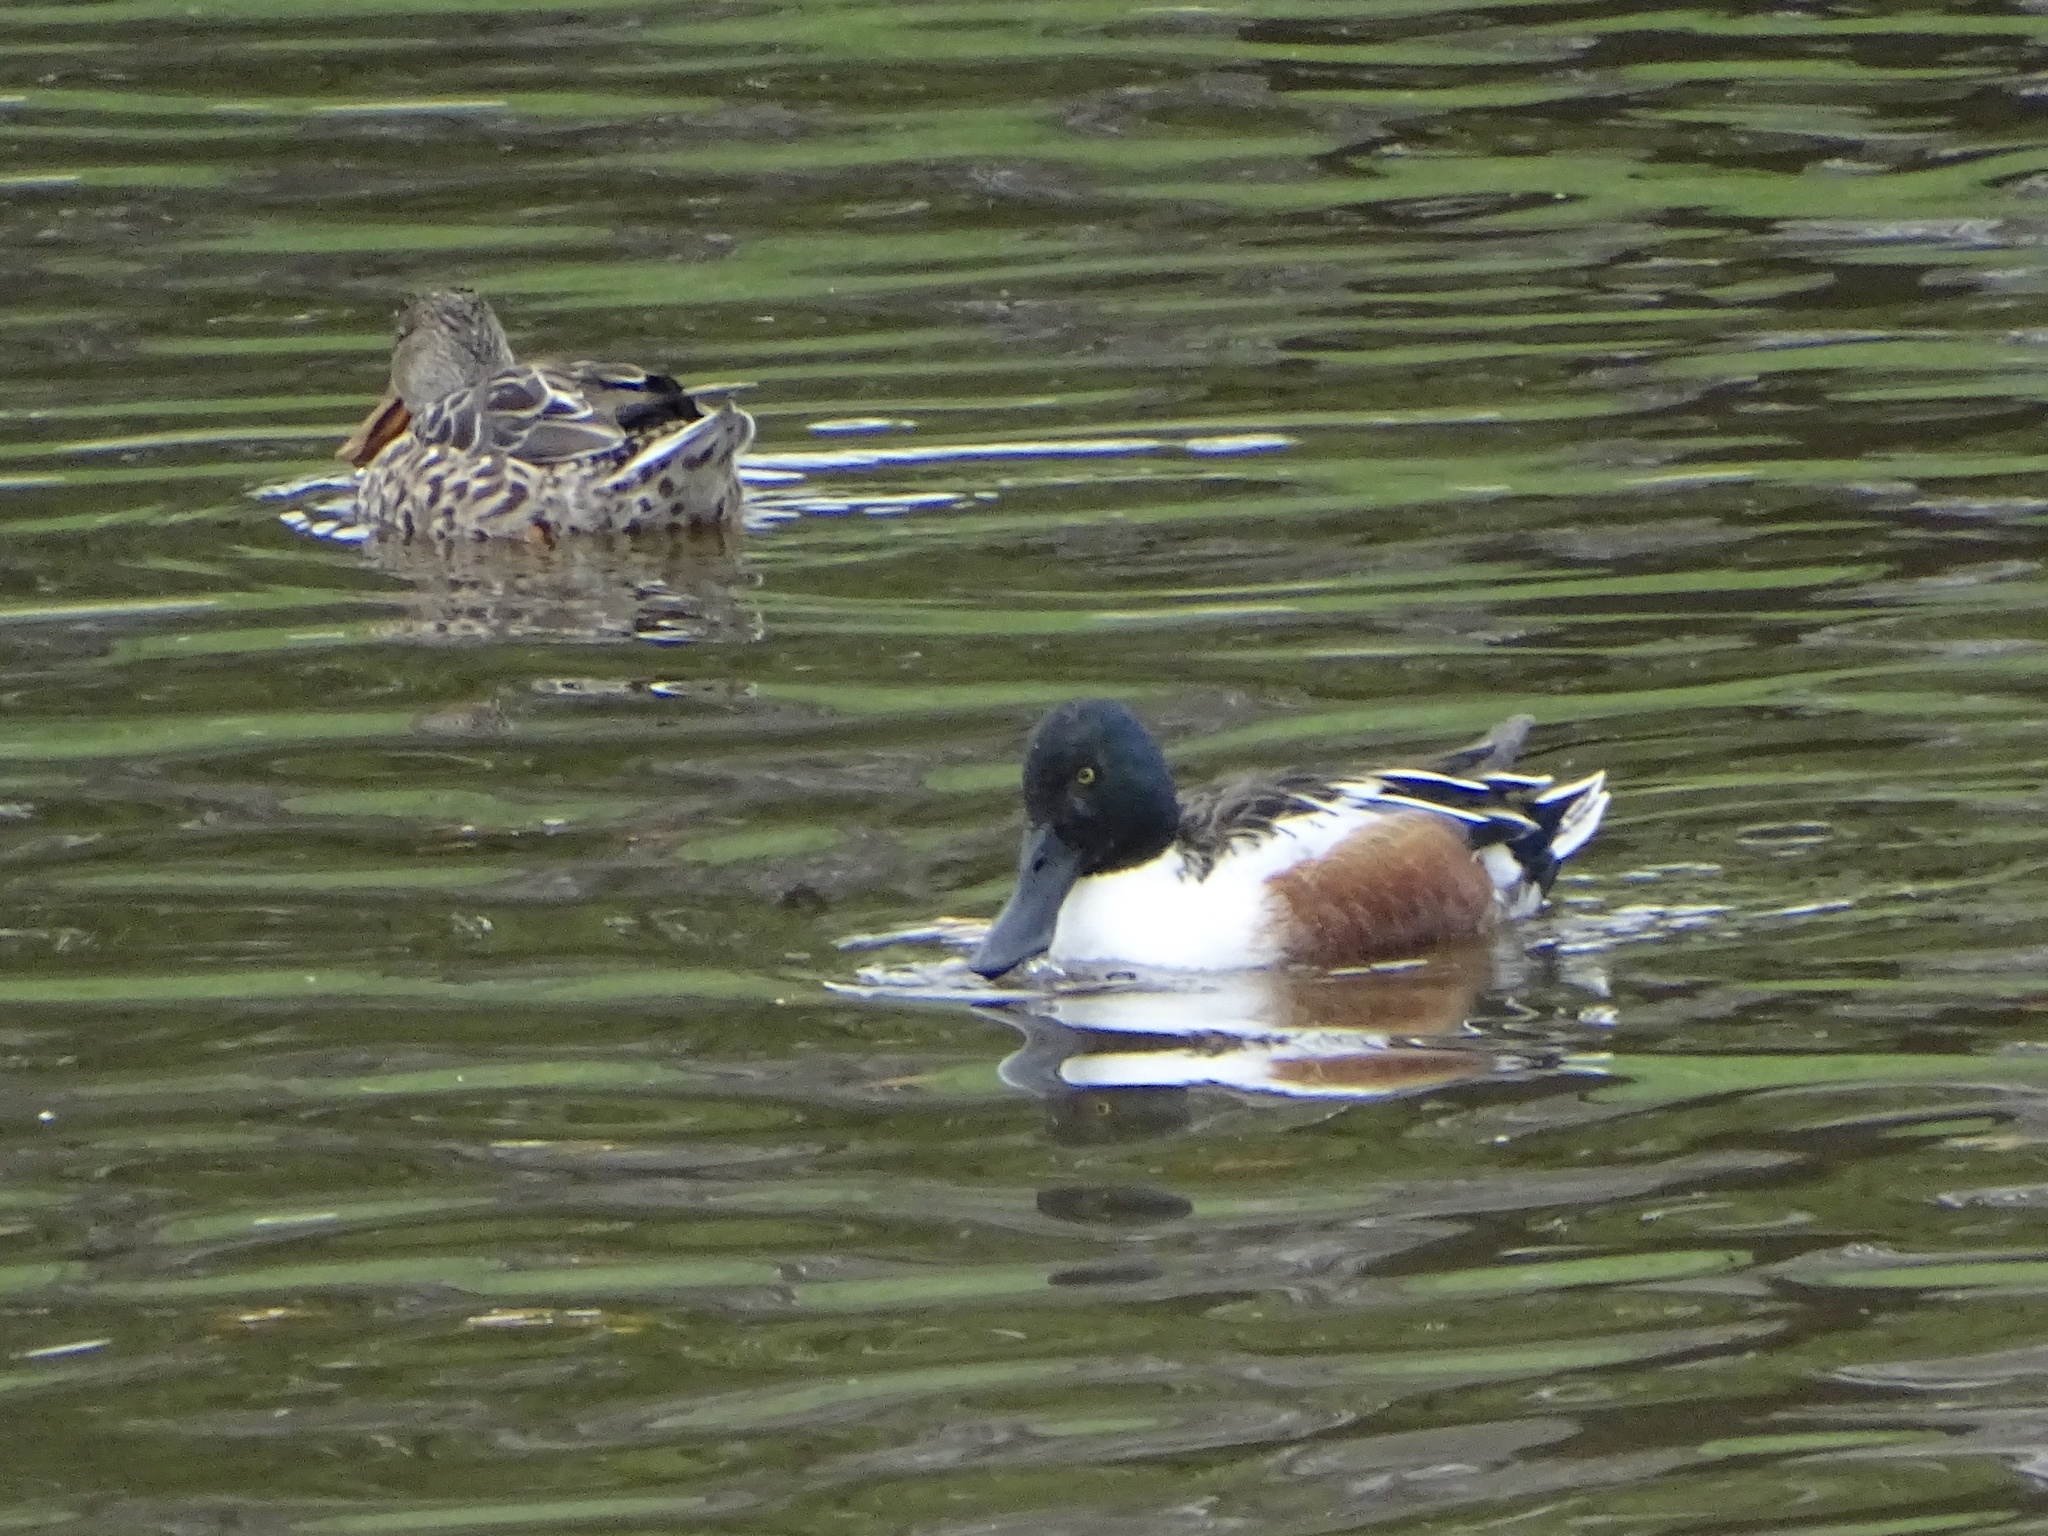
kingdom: Animalia
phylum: Chordata
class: Aves
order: Anseriformes
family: Anatidae
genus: Spatula
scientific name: Spatula clypeata
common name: Northern shoveler
